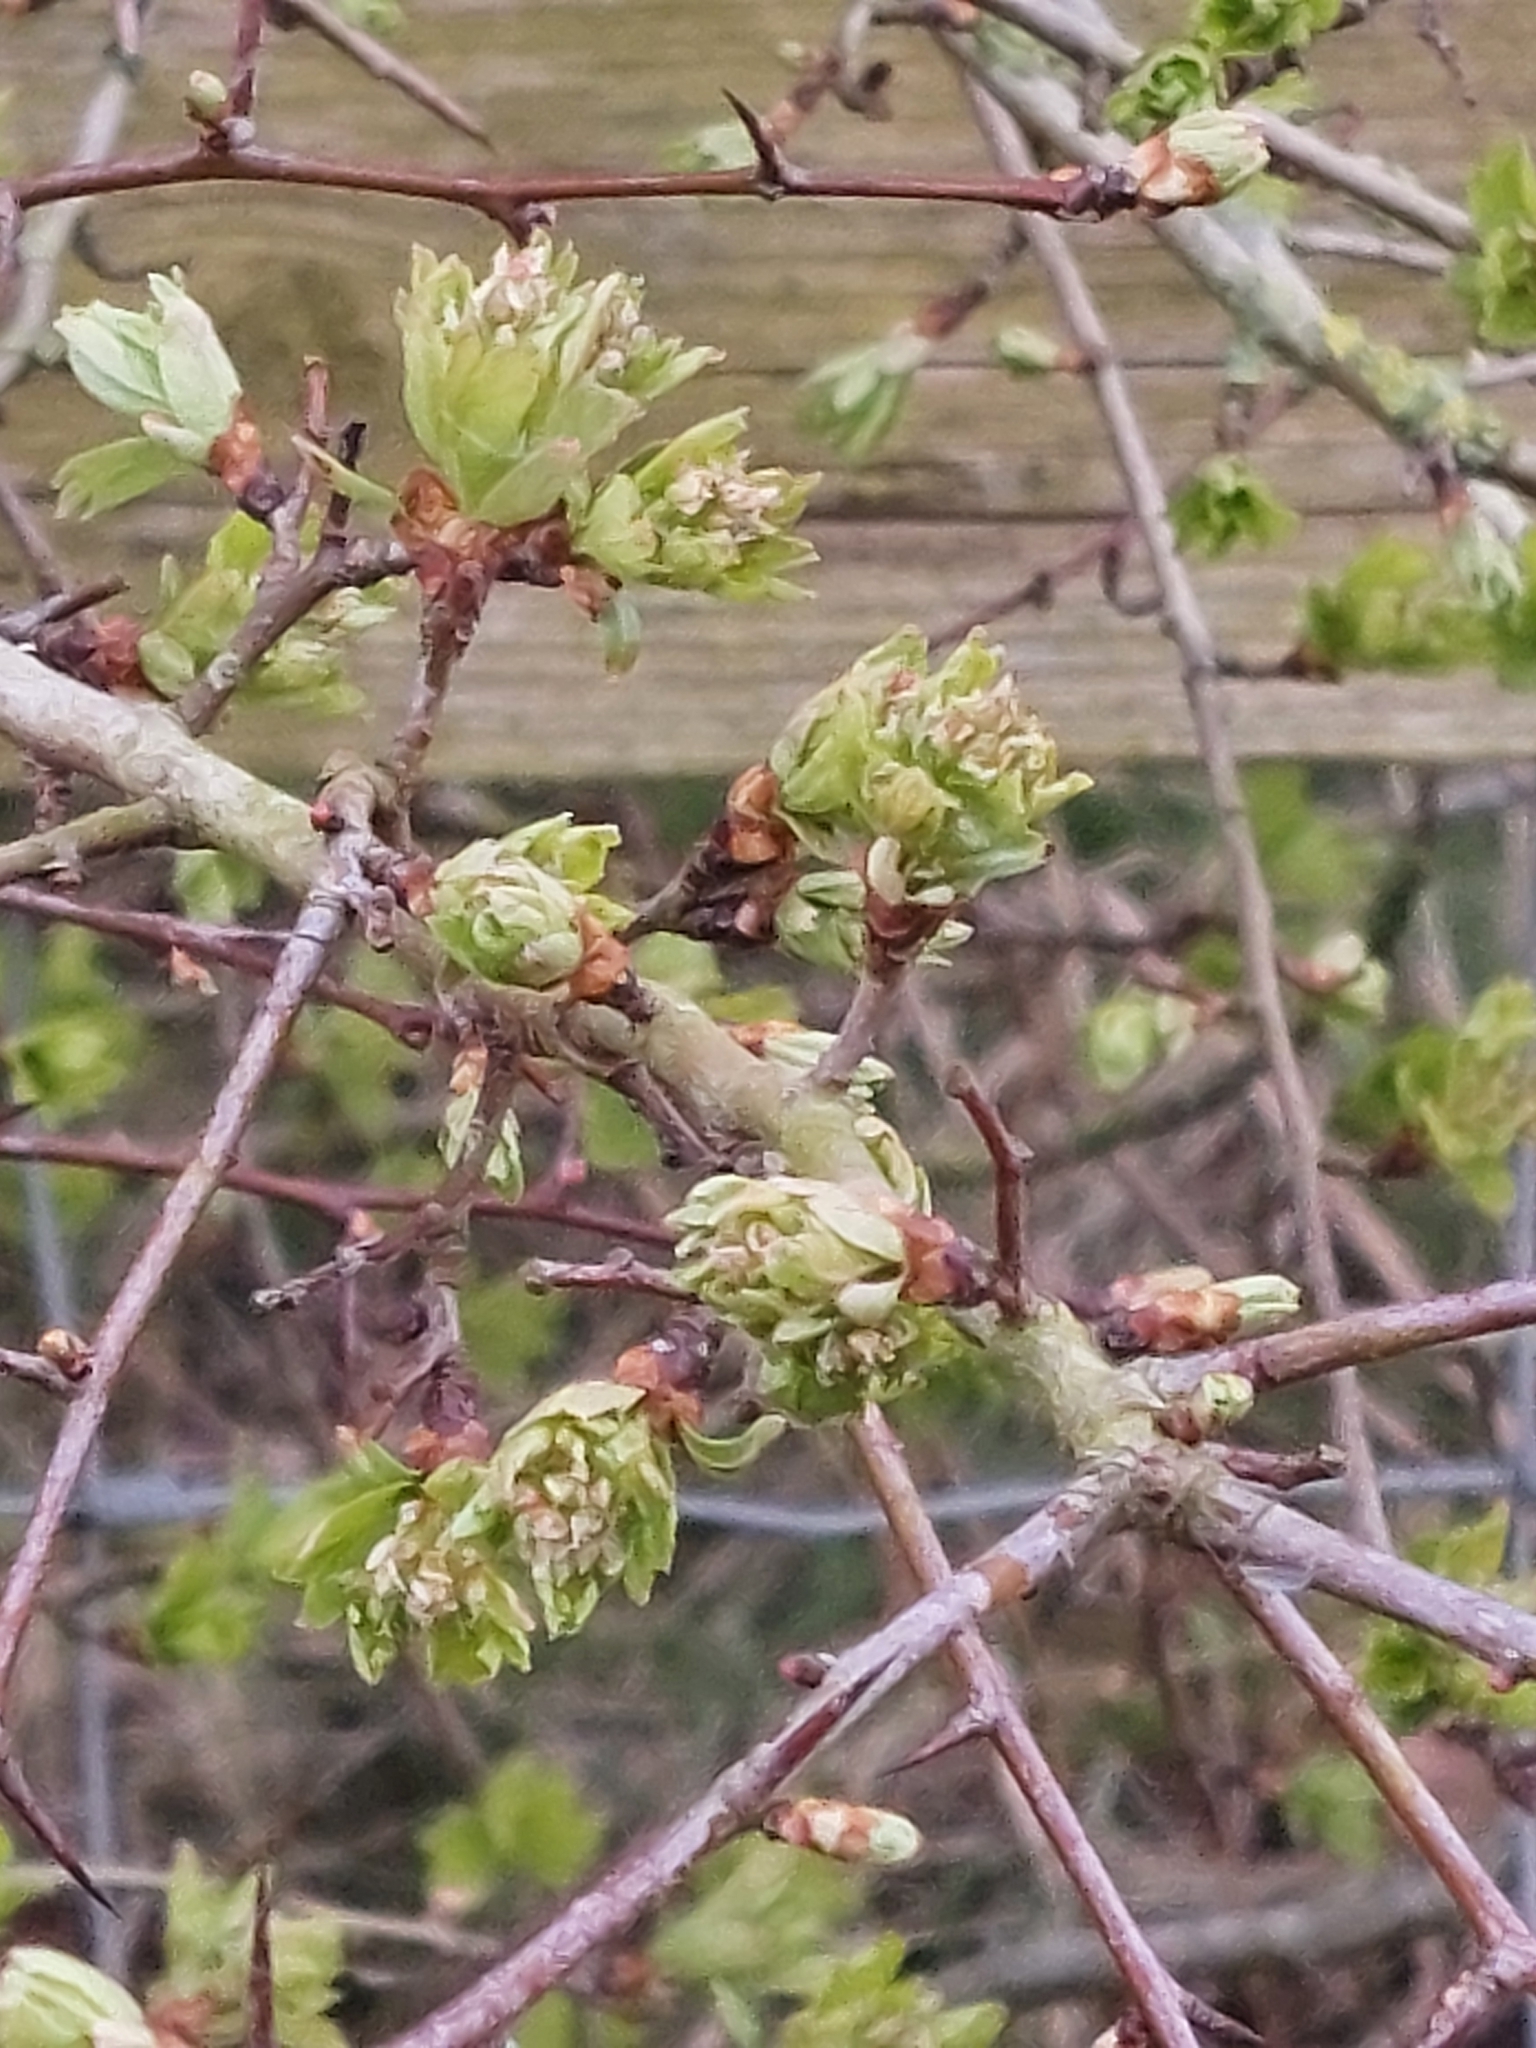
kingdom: Plantae
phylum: Tracheophyta
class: Magnoliopsida
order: Rosales
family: Rosaceae
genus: Crataegus
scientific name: Crataegus monogyna
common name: Hawthorn
